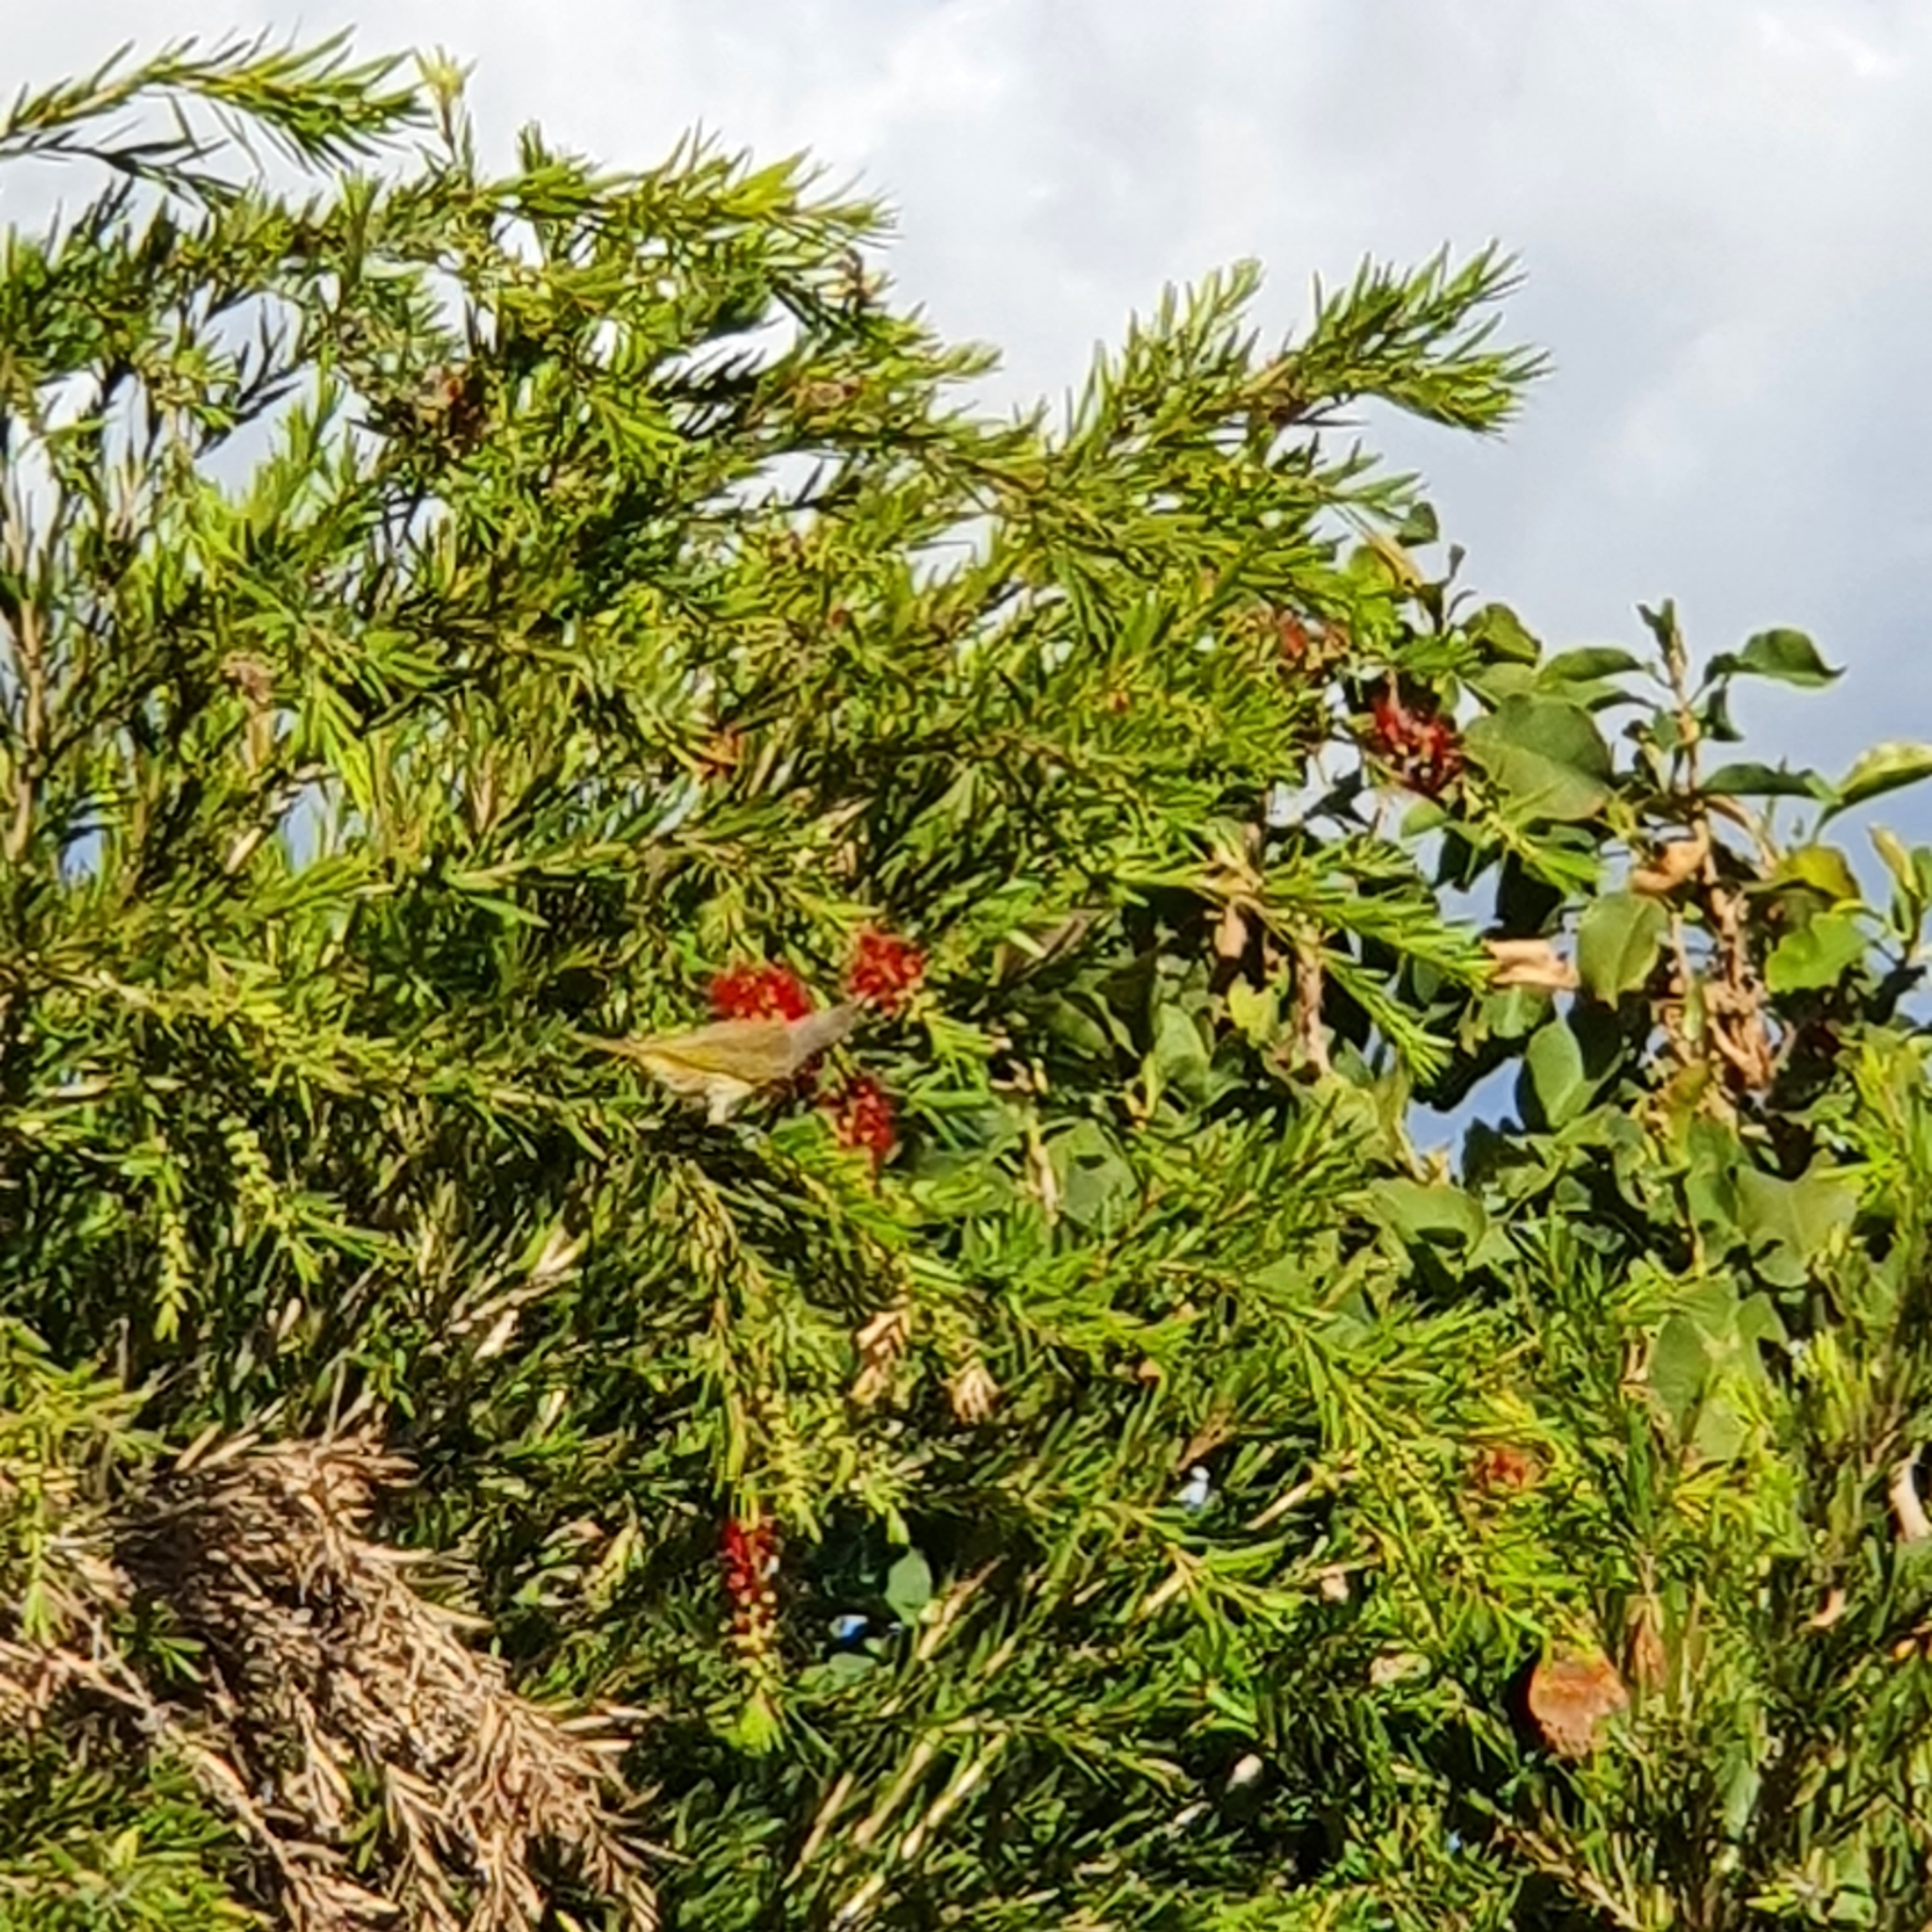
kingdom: Animalia
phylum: Chordata
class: Aves
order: Passeriformes
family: Meliphagidae
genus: Lichmera
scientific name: Lichmera indistincta
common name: Brown honeyeater
